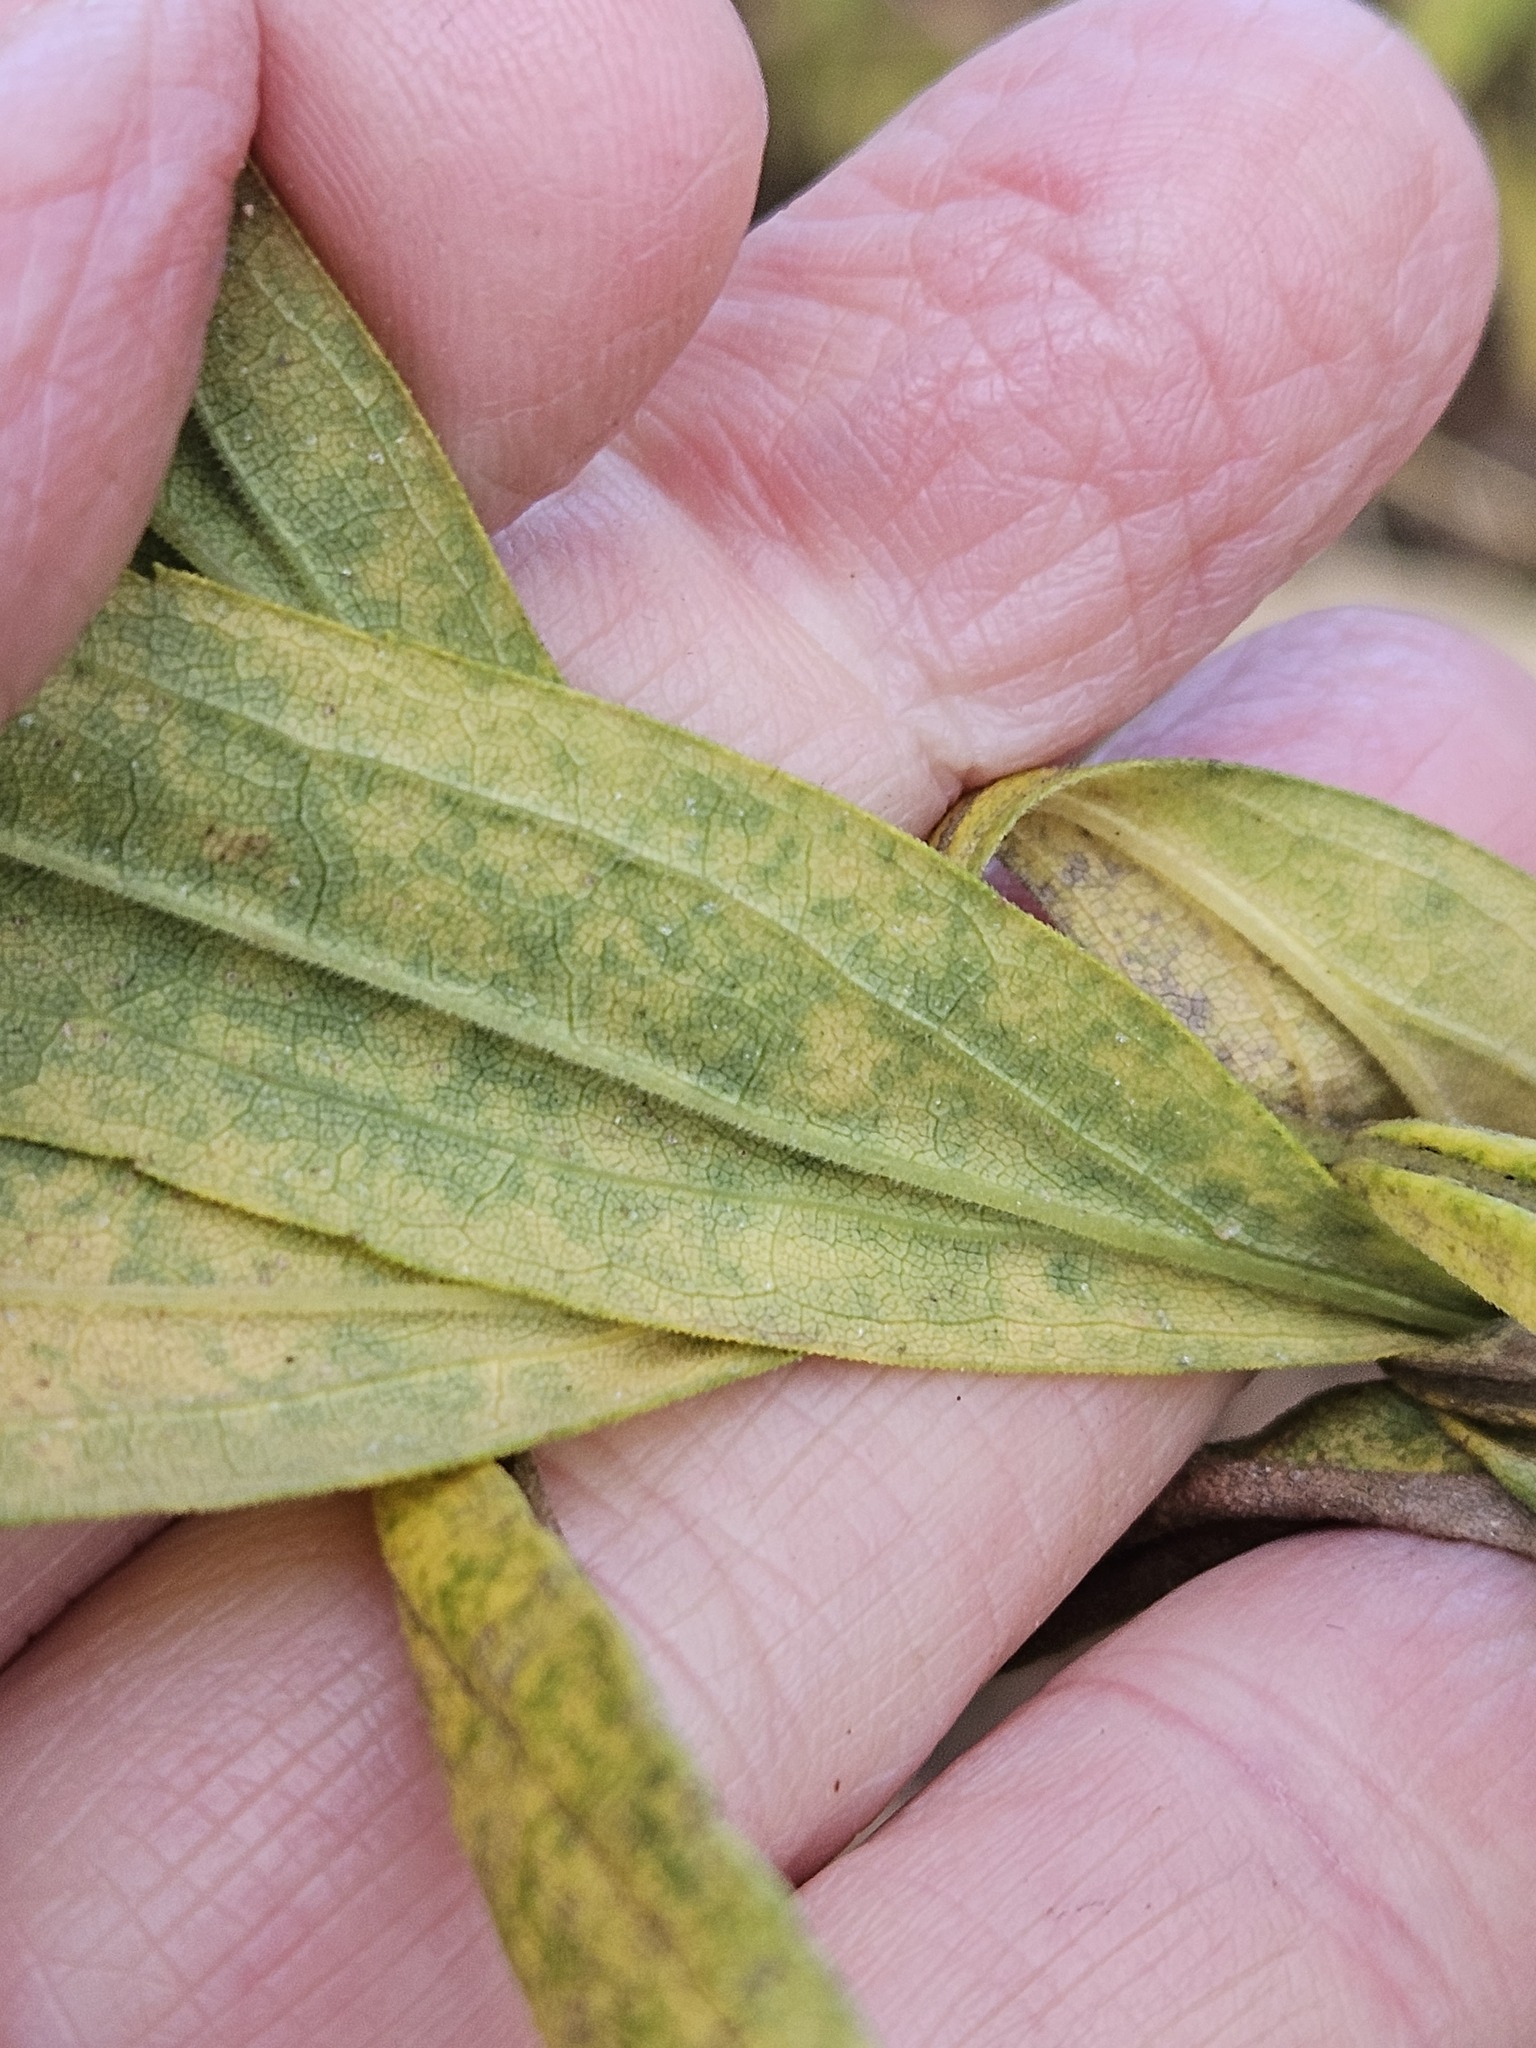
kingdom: Plantae
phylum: Tracheophyta
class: Magnoliopsida
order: Asterales
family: Asteraceae
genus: Solidago
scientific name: Solidago canadensis
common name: Canada goldenrod
